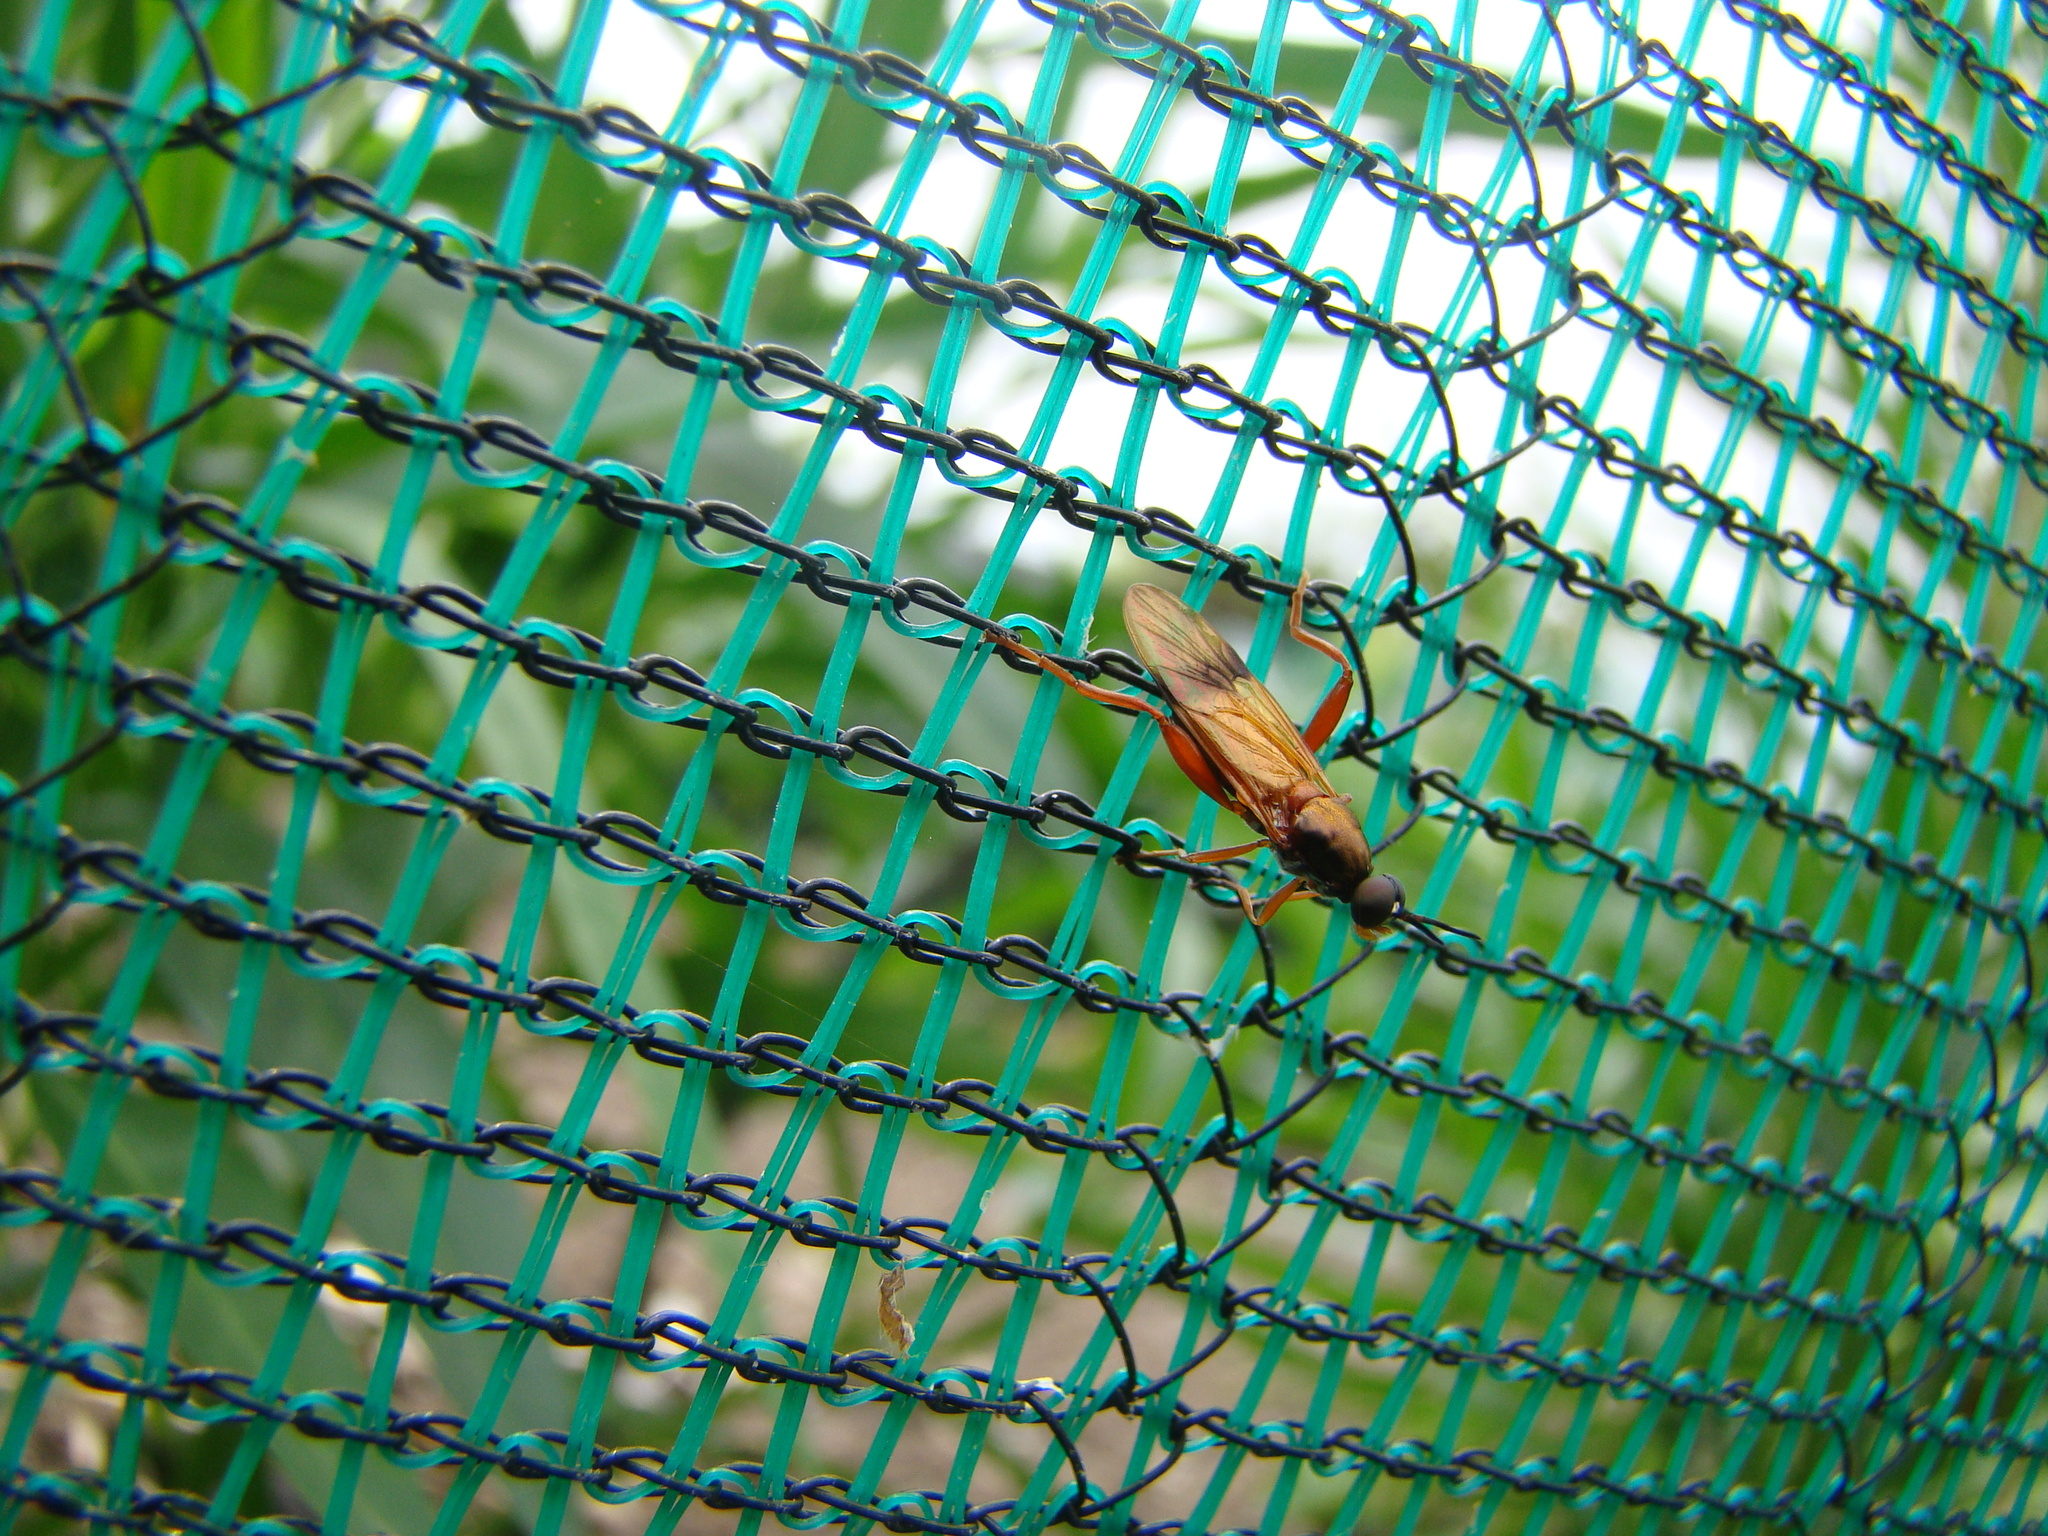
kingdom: Animalia
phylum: Arthropoda
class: Insecta
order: Diptera
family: Stratiomyidae
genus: Benhamyia
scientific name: Benhamyia apicalis
